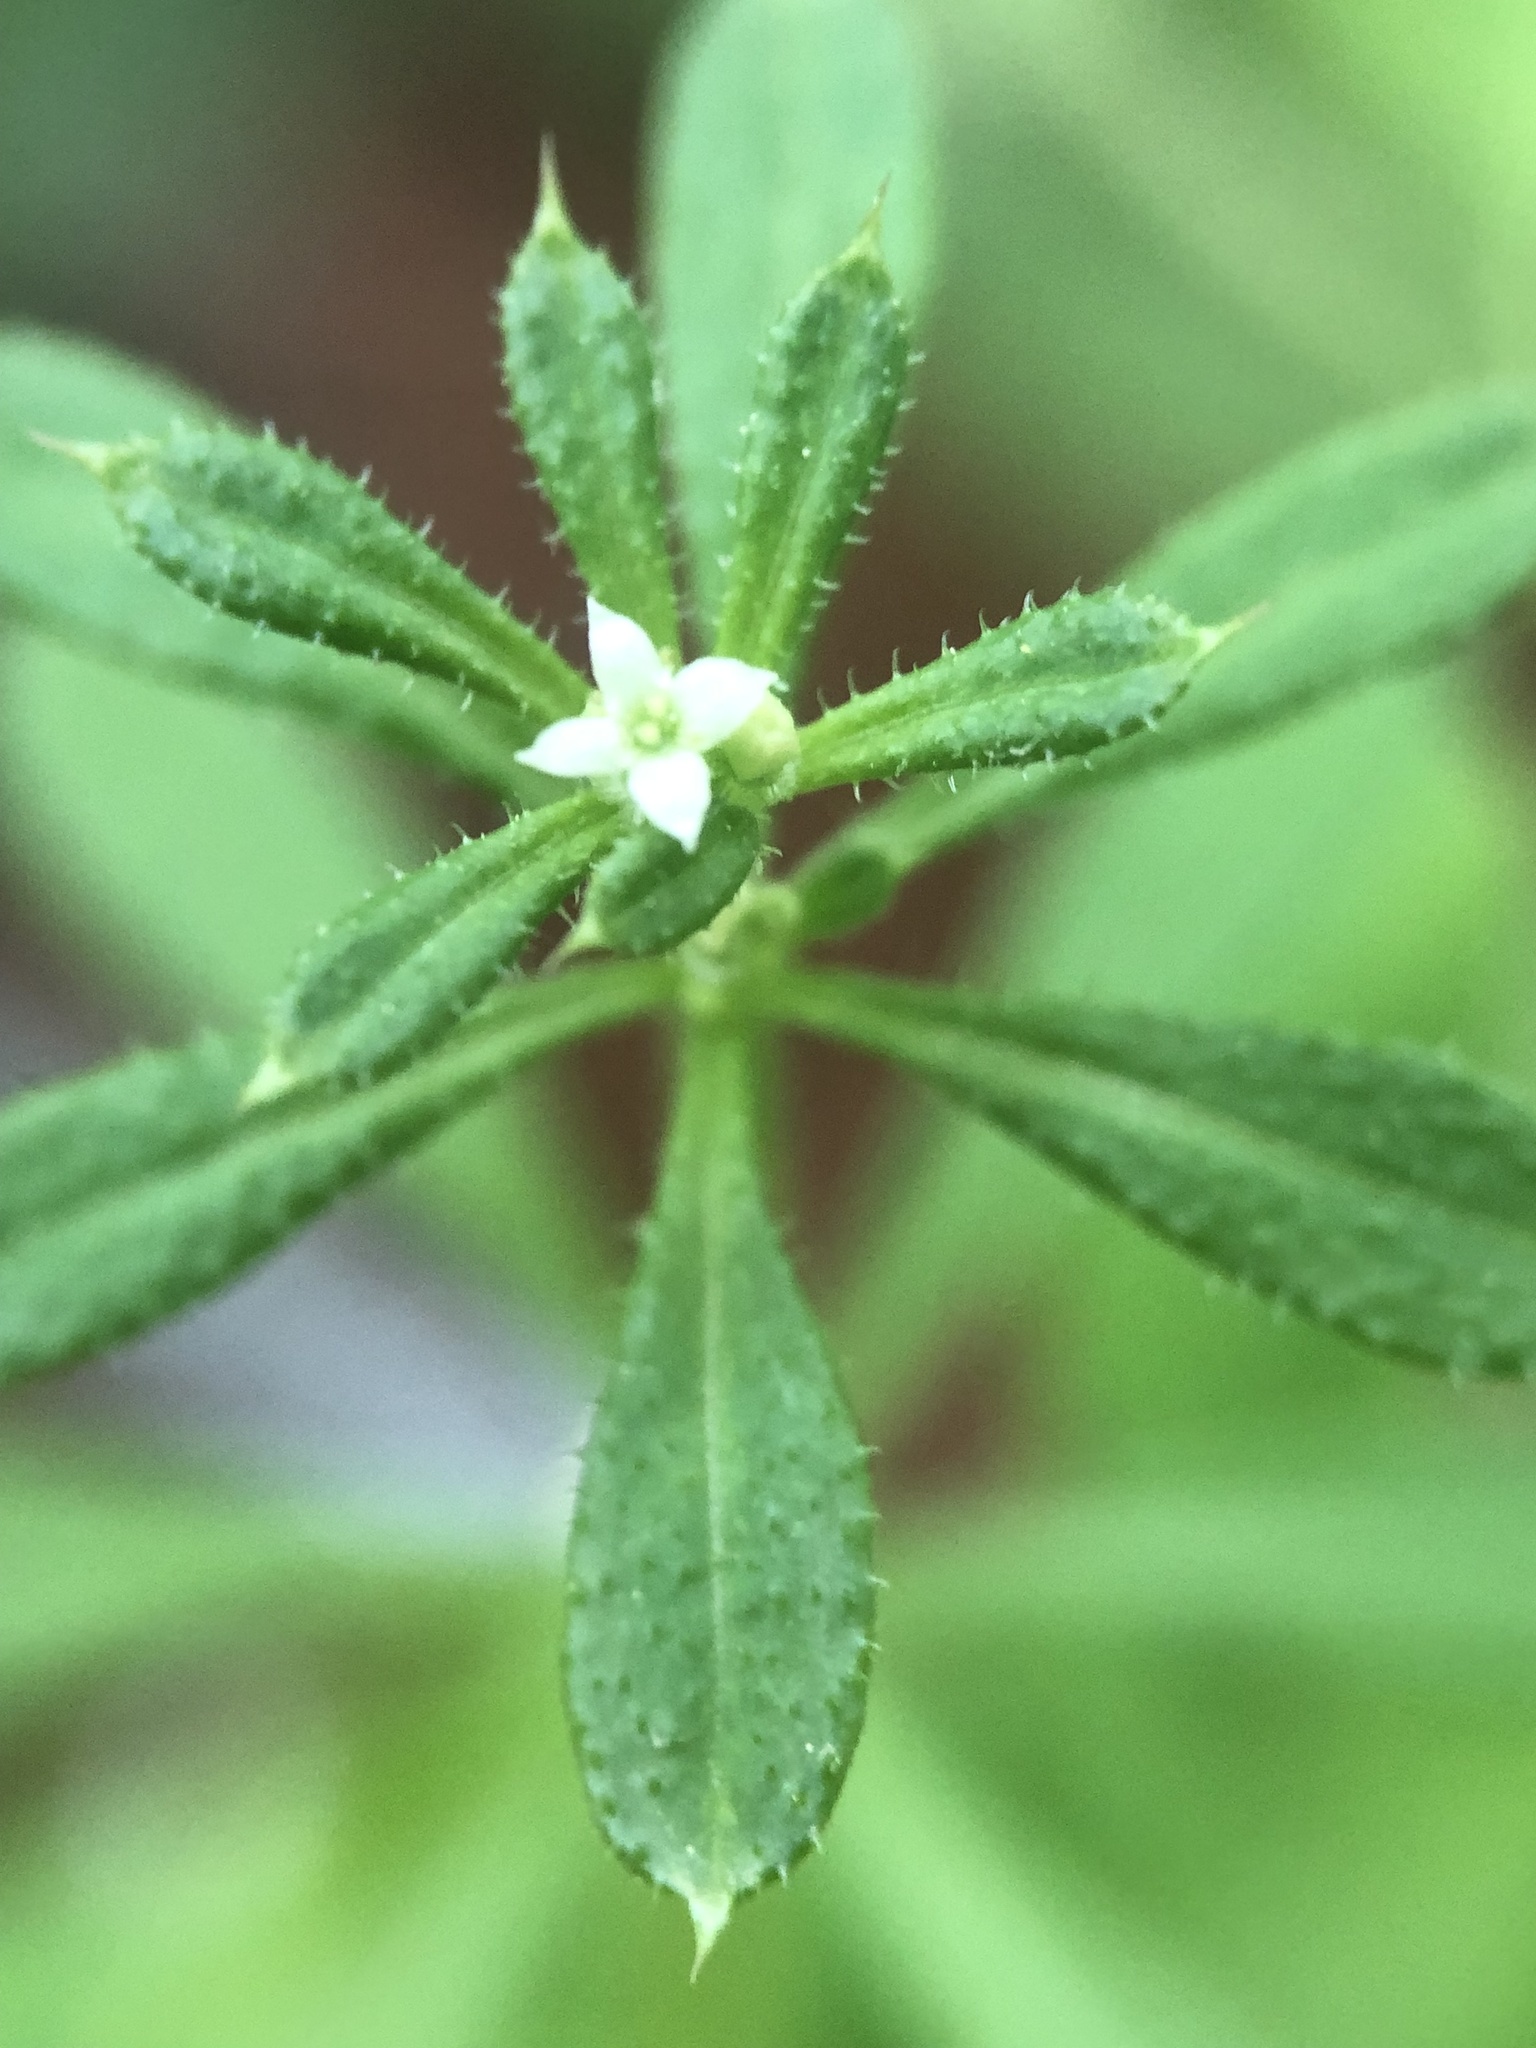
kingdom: Plantae
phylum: Tracheophyta
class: Magnoliopsida
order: Gentianales
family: Rubiaceae
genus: Galium
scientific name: Galium aparine
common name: Cleavers
